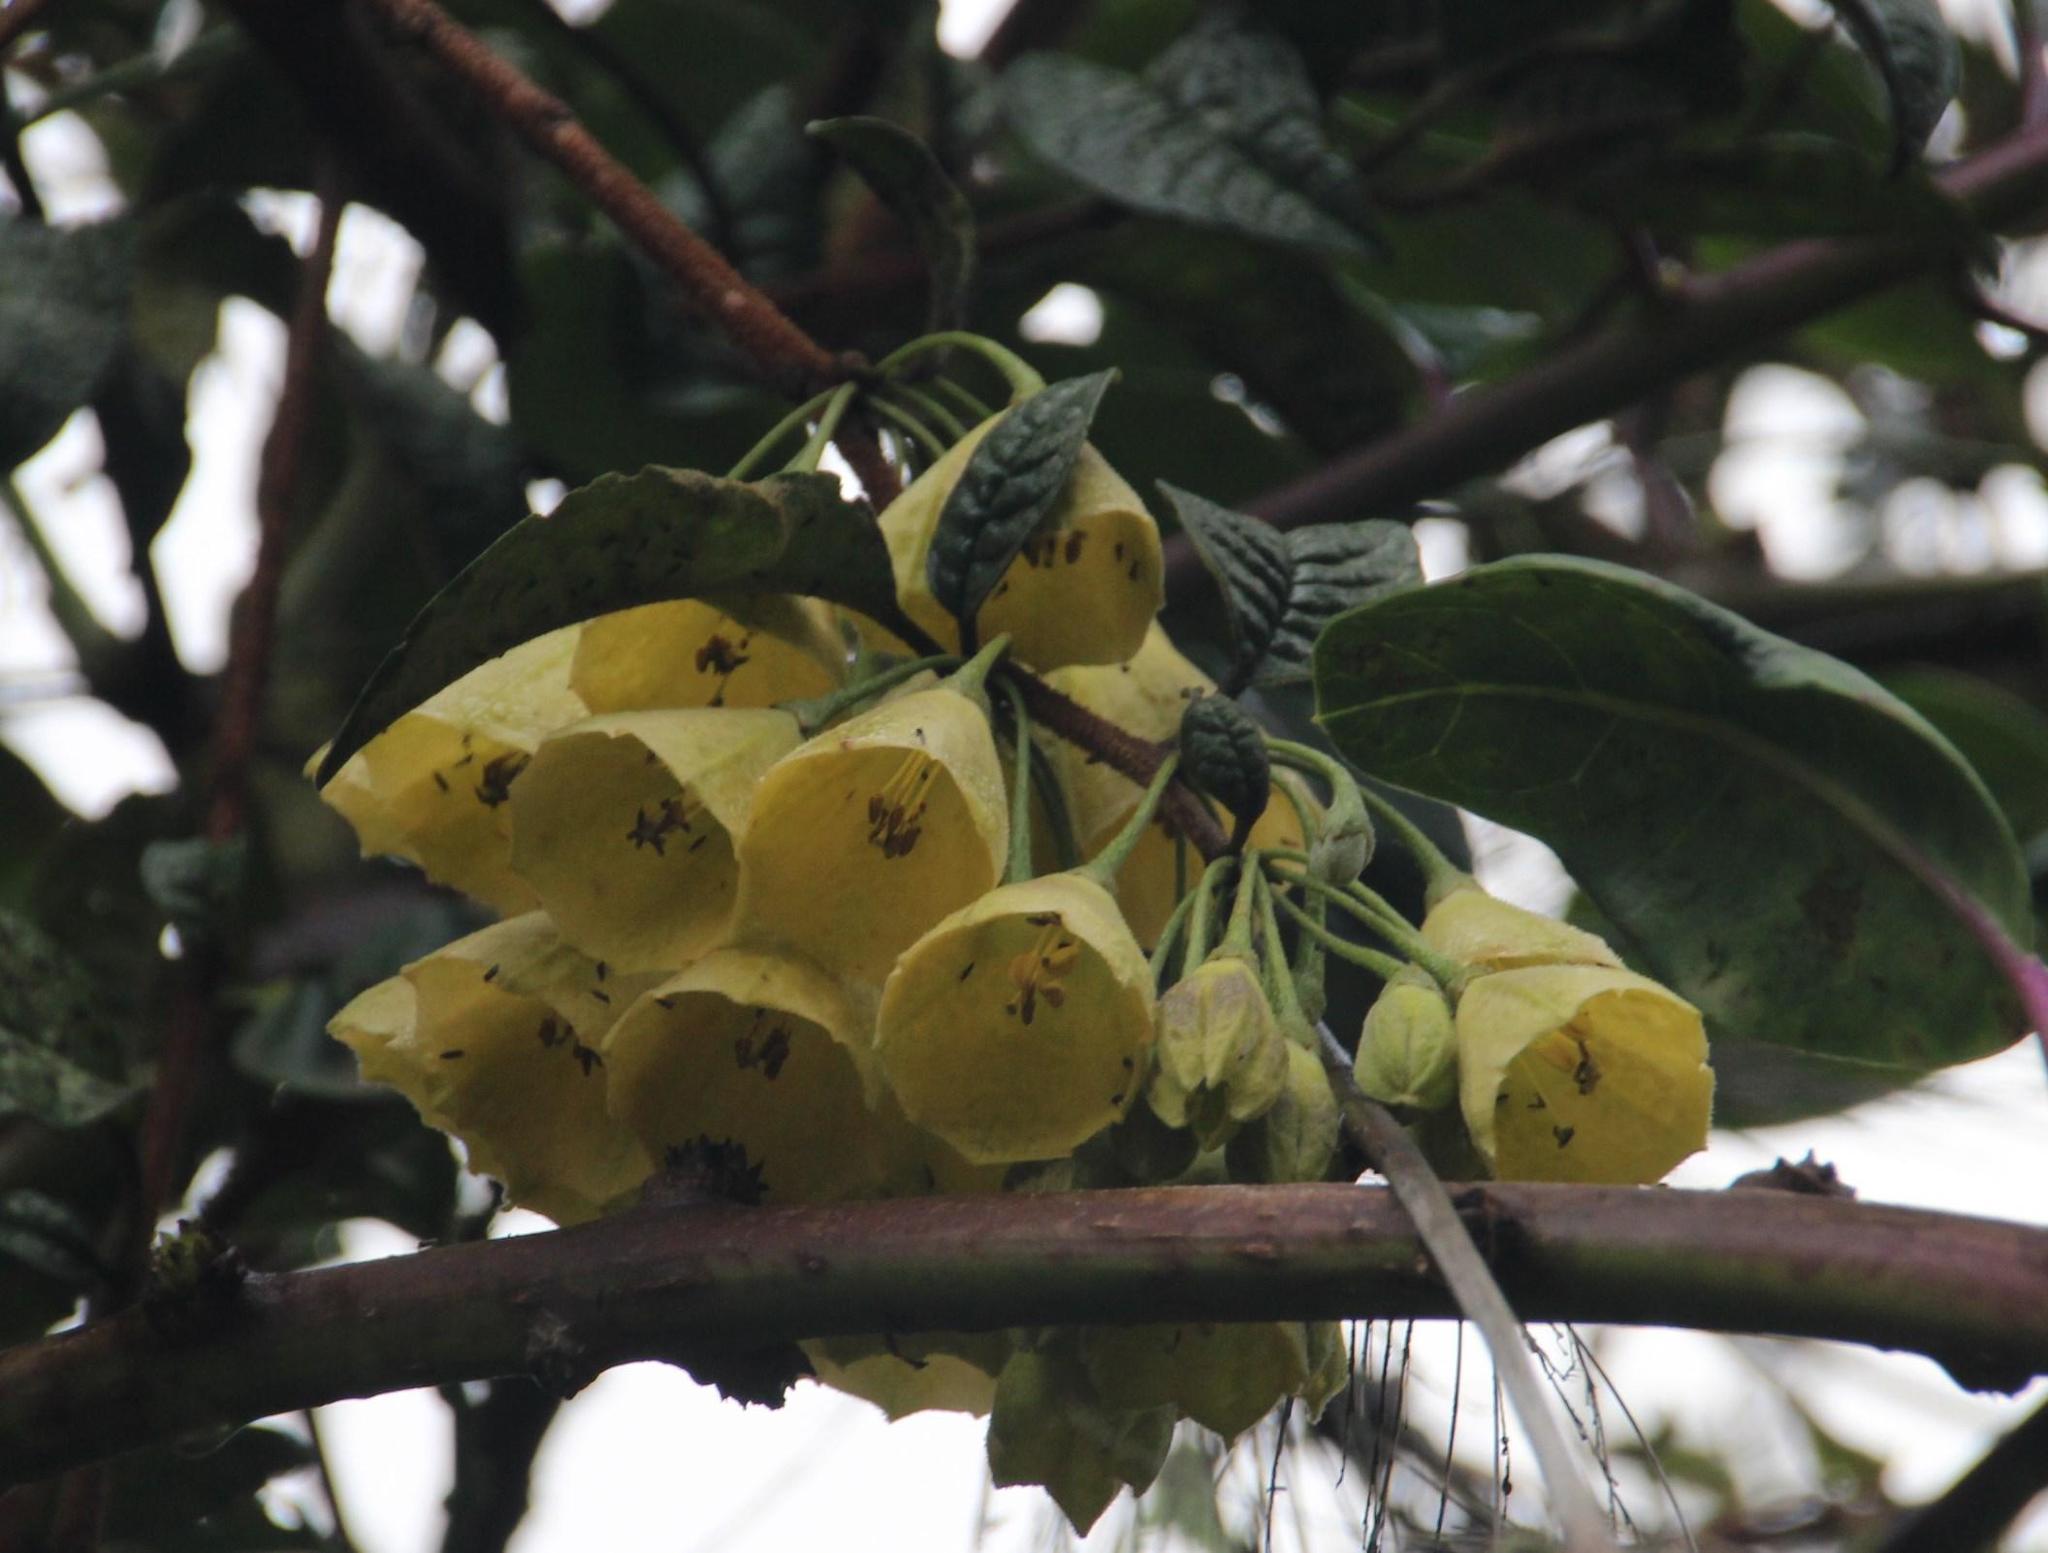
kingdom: Plantae
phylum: Tracheophyta
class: Magnoliopsida
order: Solanales
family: Solanaceae
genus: Saracha
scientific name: Saracha punctata
